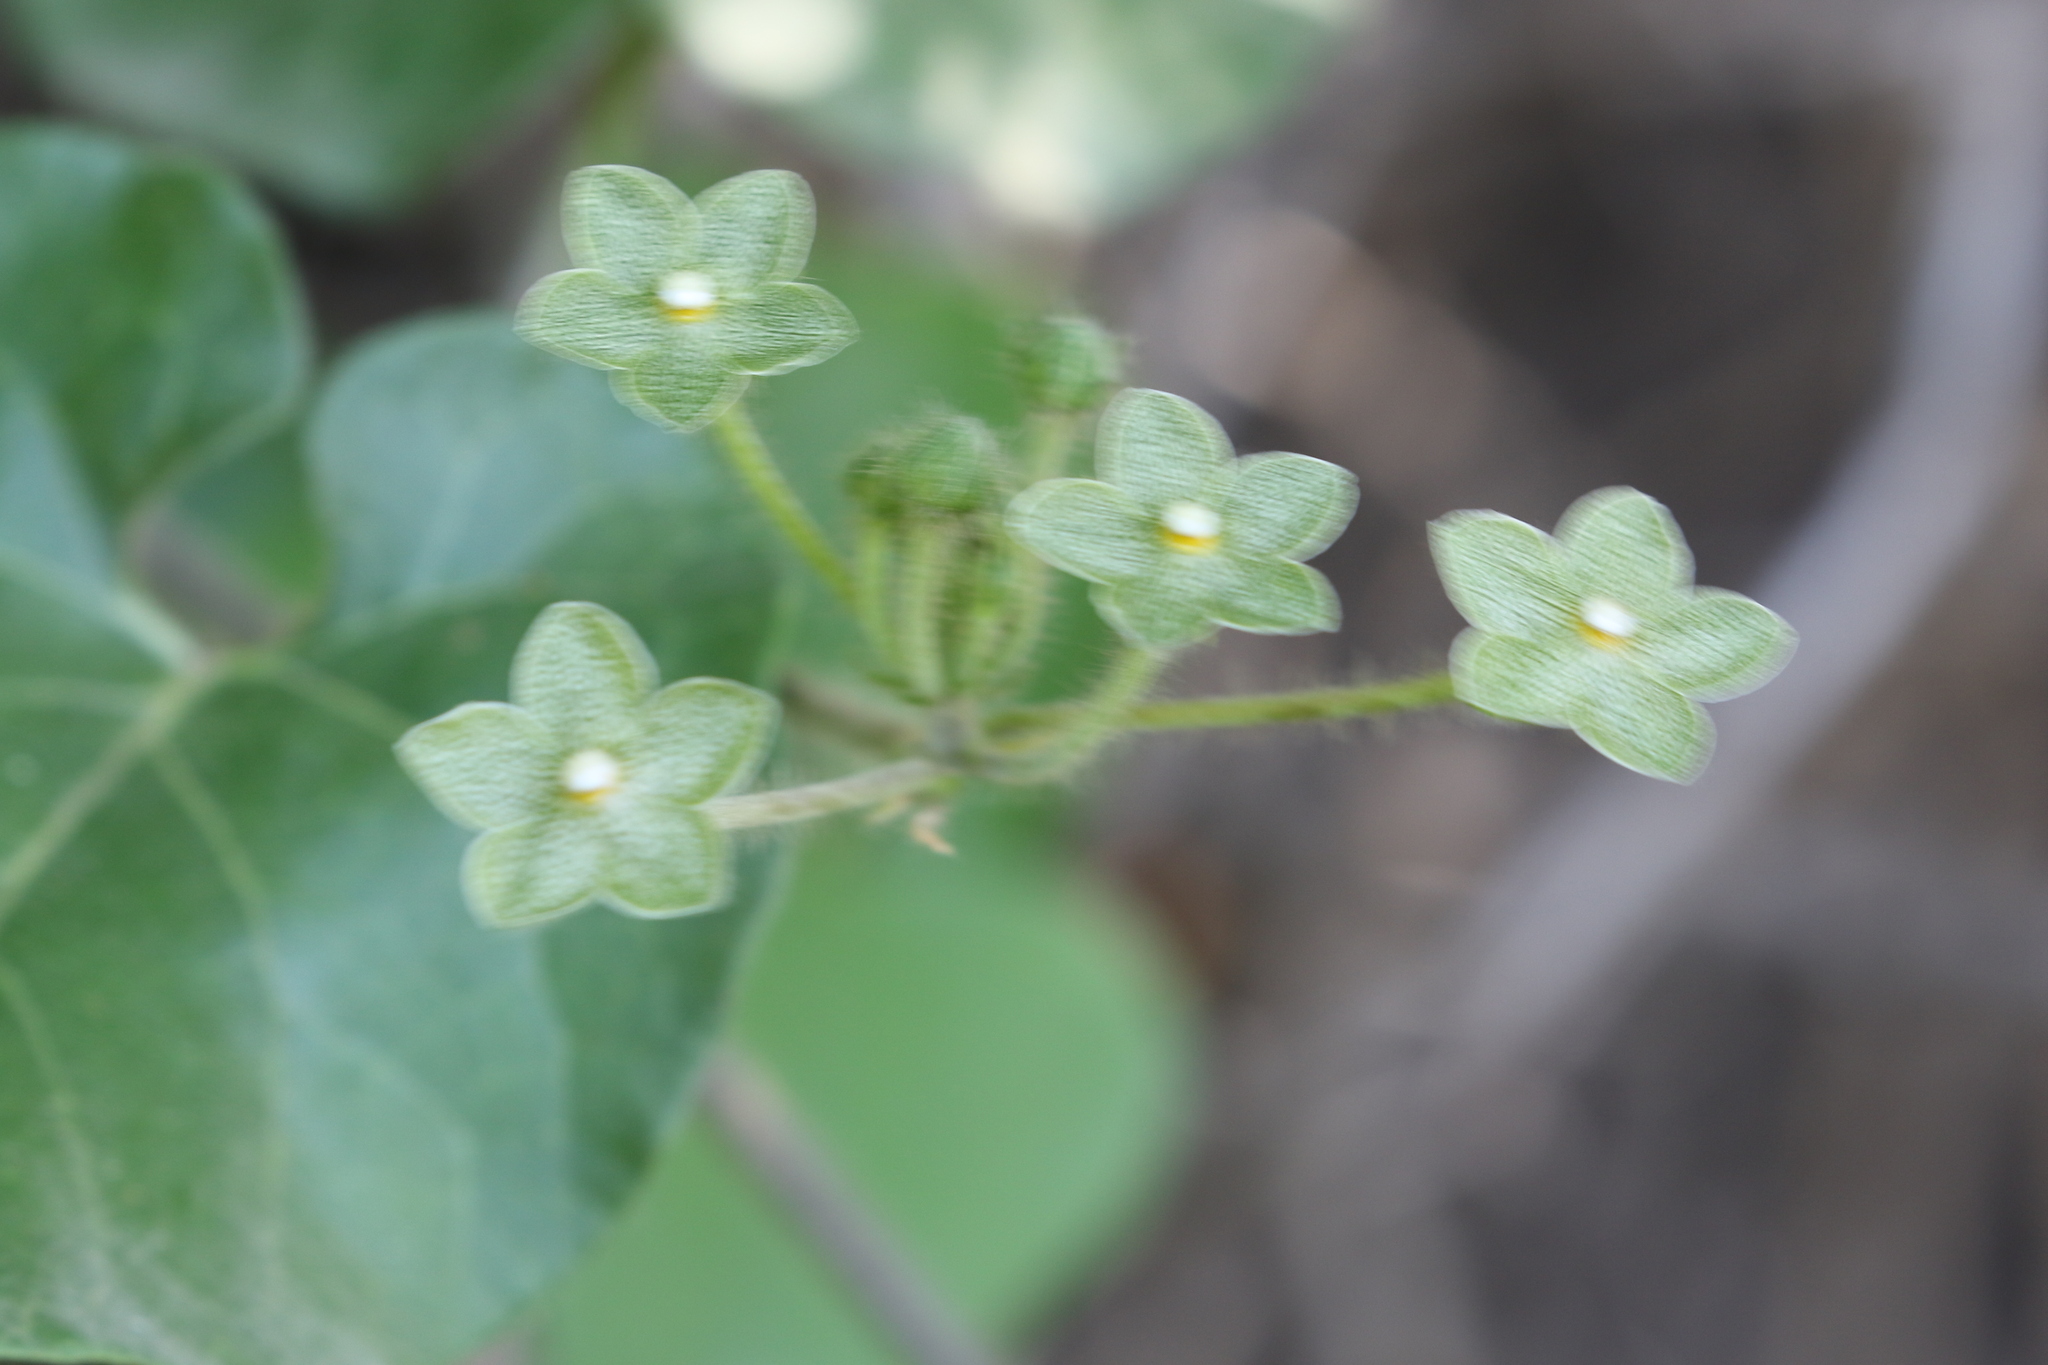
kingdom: Plantae
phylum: Tracheophyta
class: Magnoliopsida
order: Gentianales
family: Apocynaceae
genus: Dictyanthus
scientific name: Dictyanthus reticulatus
